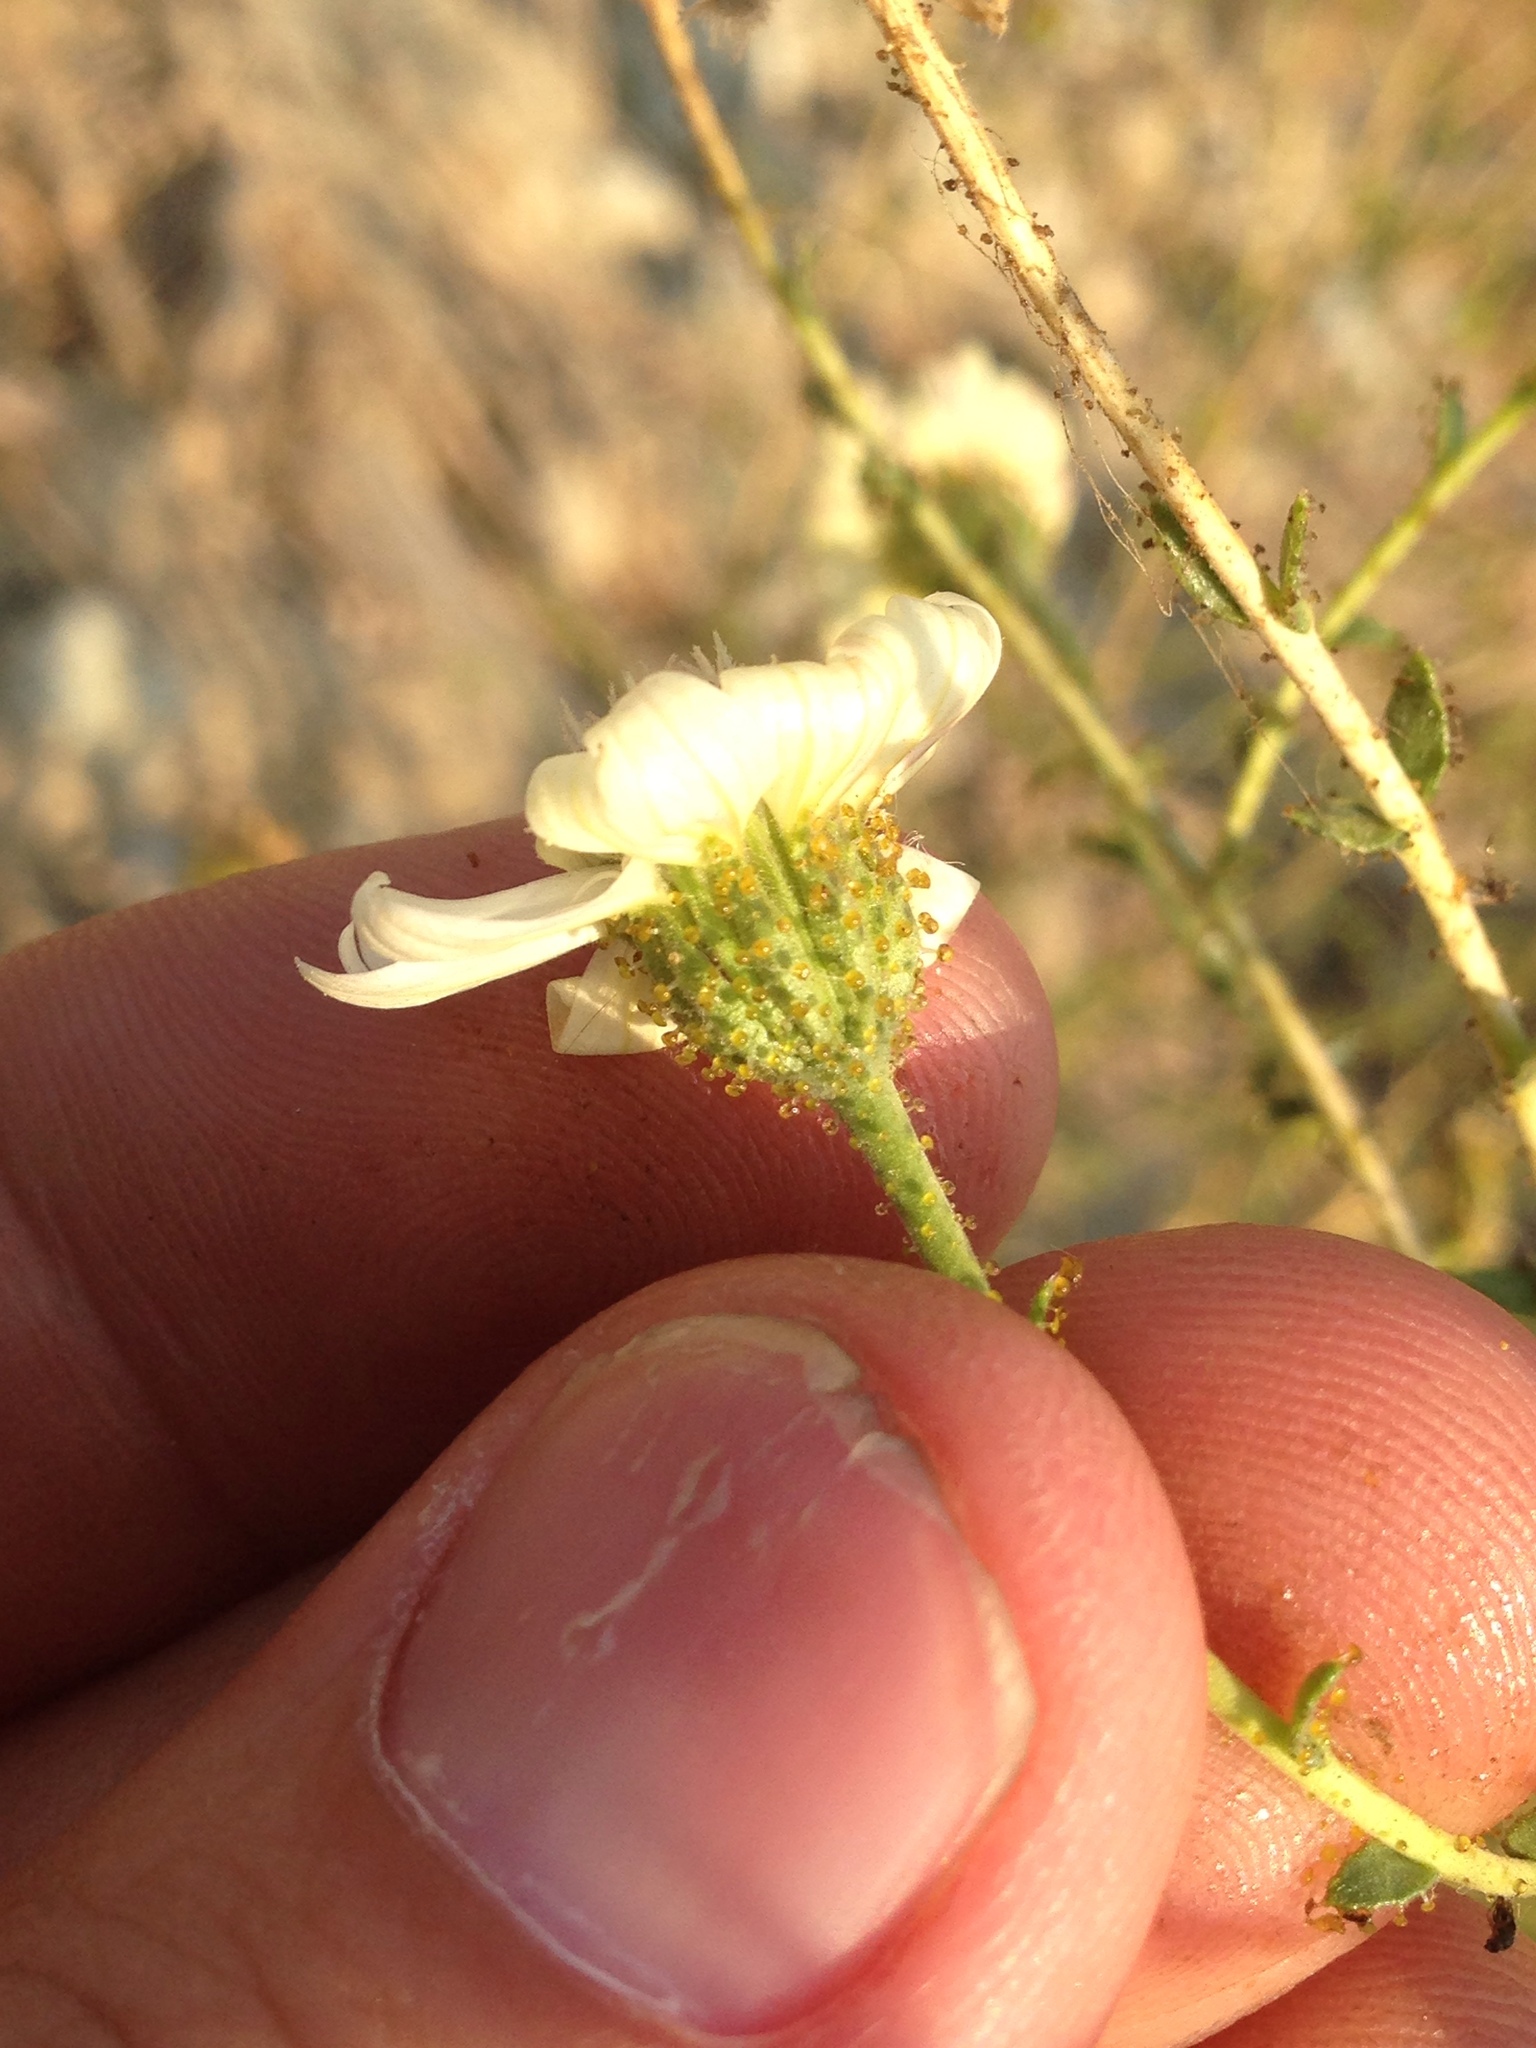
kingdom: Plantae
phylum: Tracheophyta
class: Magnoliopsida
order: Asterales
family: Asteraceae
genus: Blepharizonia
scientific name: Blepharizonia laxa
